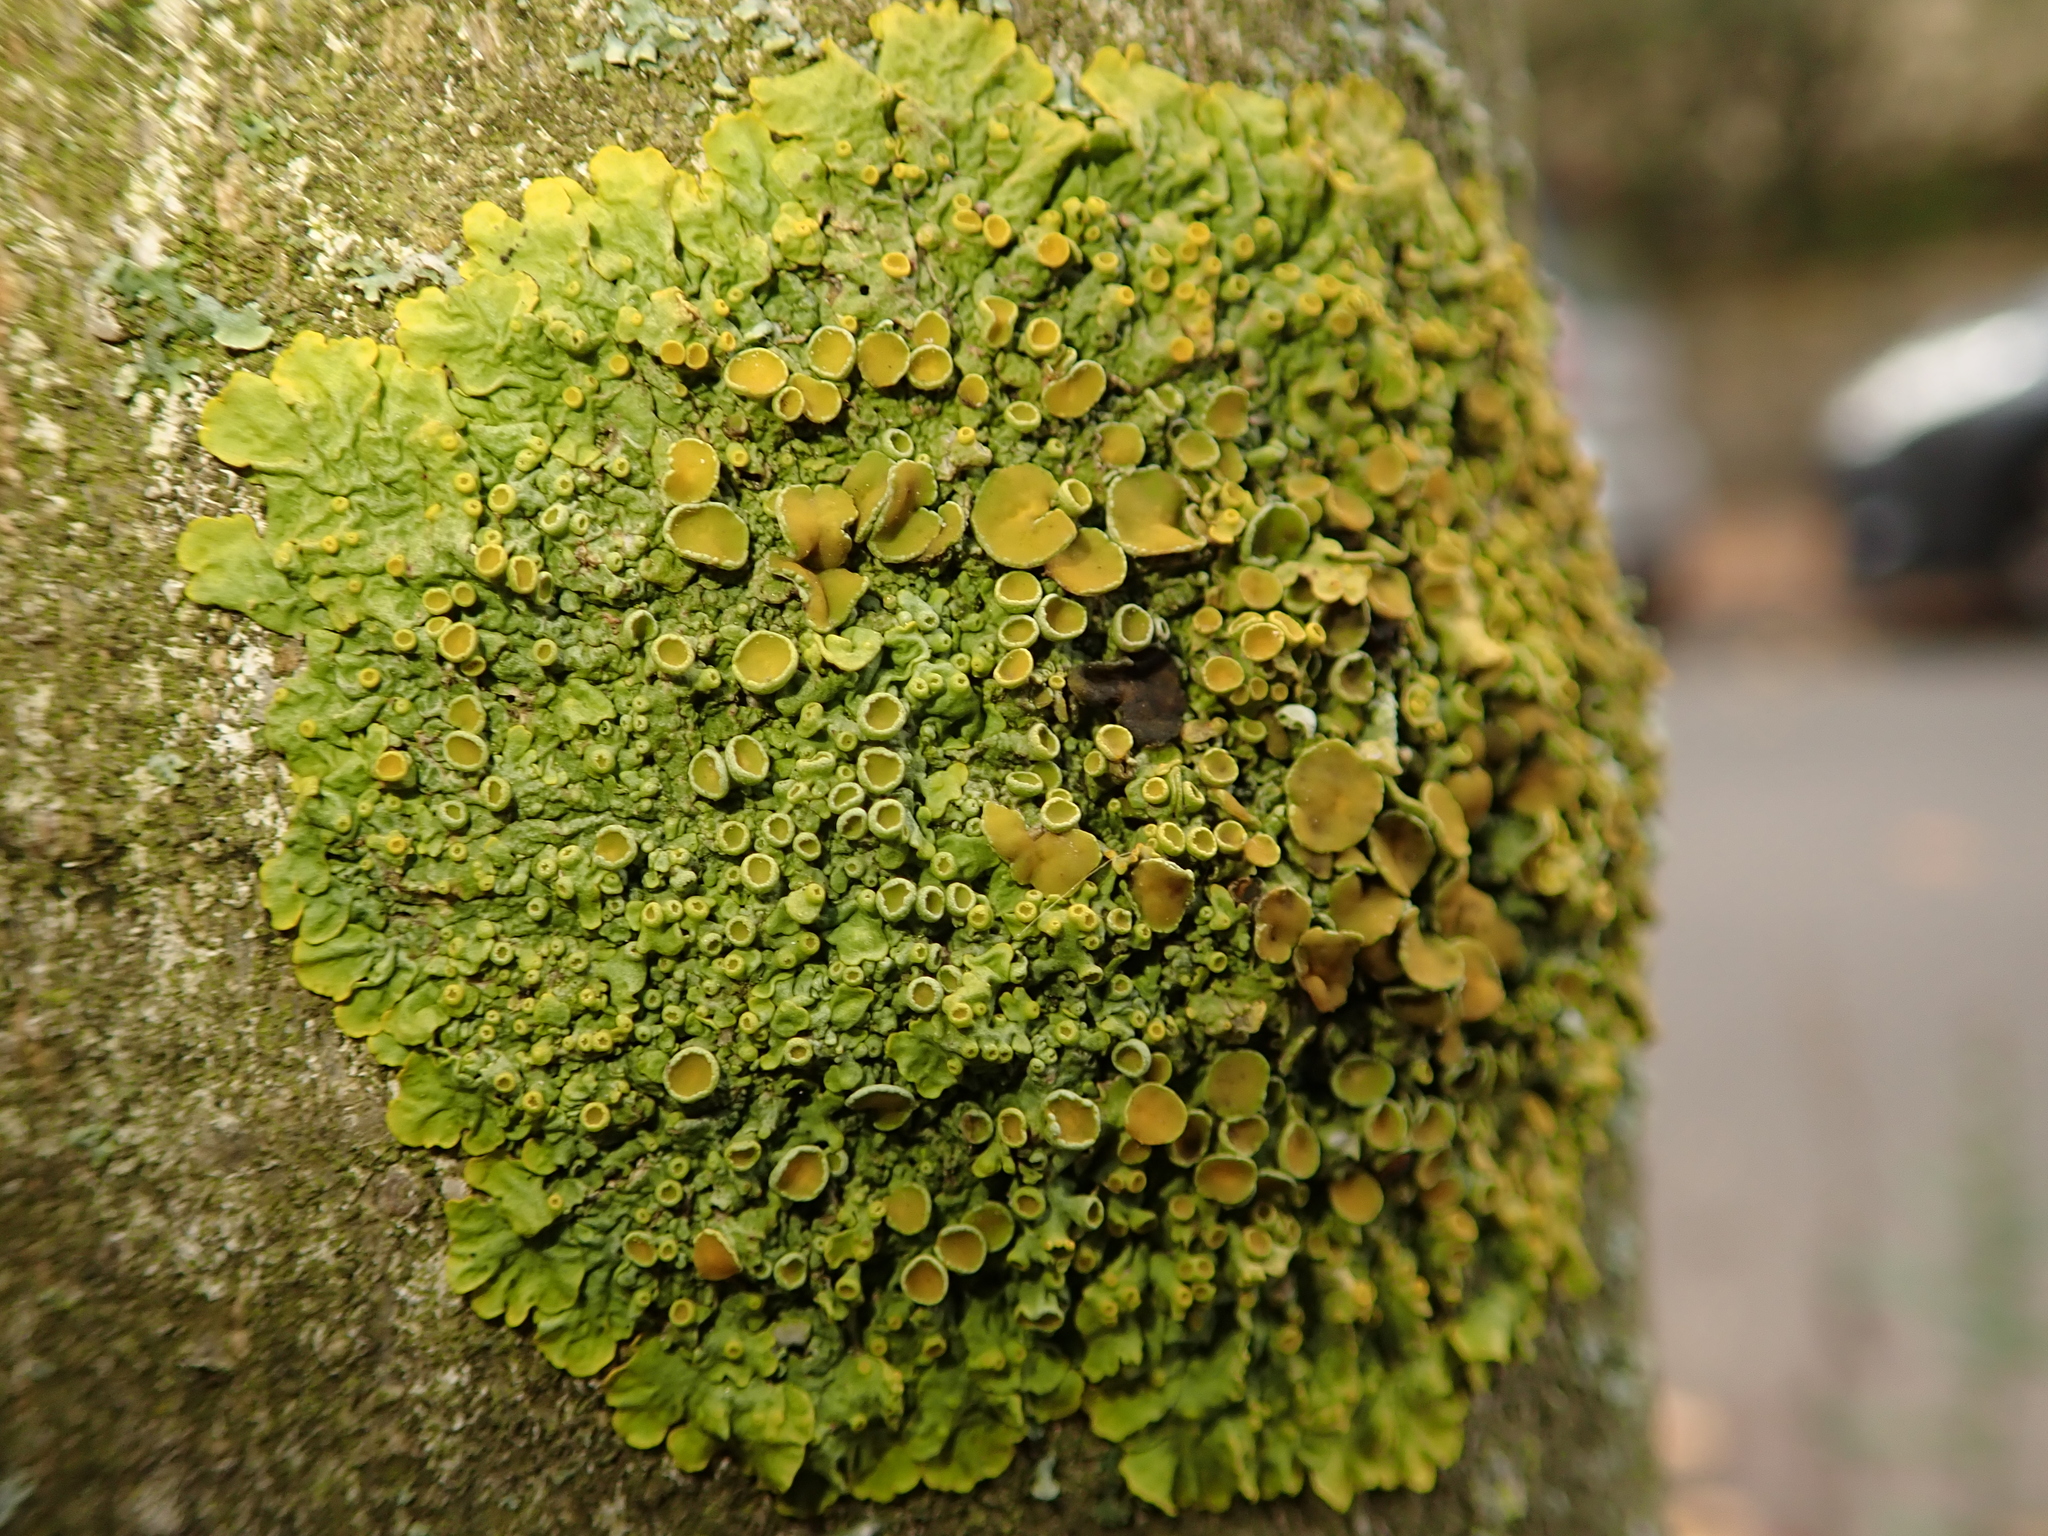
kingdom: Fungi
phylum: Ascomycota
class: Lecanoromycetes
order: Teloschistales
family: Teloschistaceae
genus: Xanthoria
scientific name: Xanthoria parietina
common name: Common orange lichen
